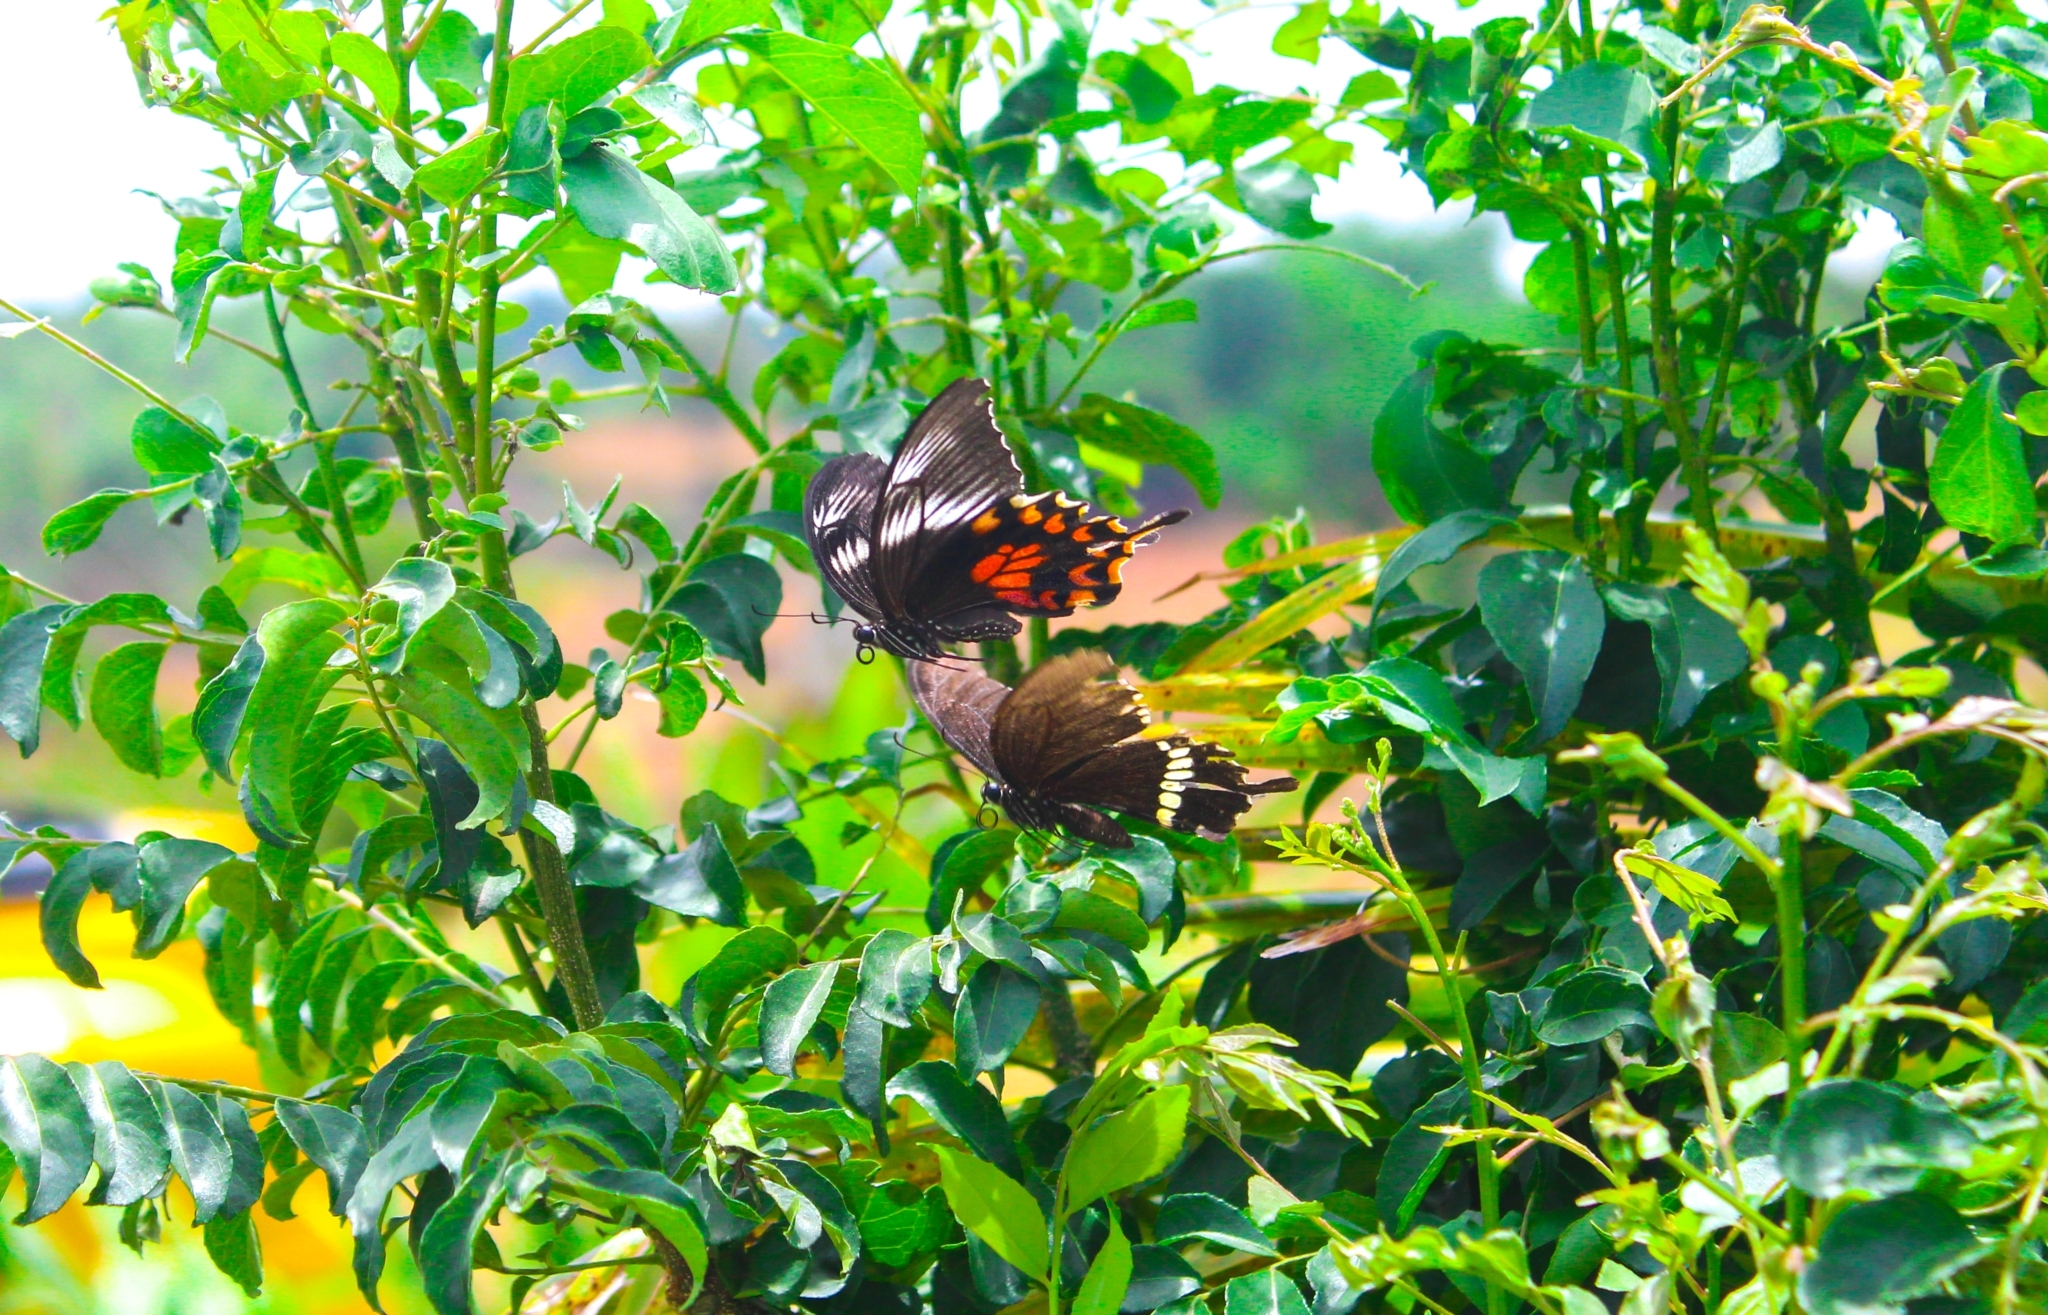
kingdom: Animalia
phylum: Arthropoda
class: Insecta
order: Lepidoptera
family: Papilionidae
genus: Papilio
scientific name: Papilio polytes
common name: Common mormon
